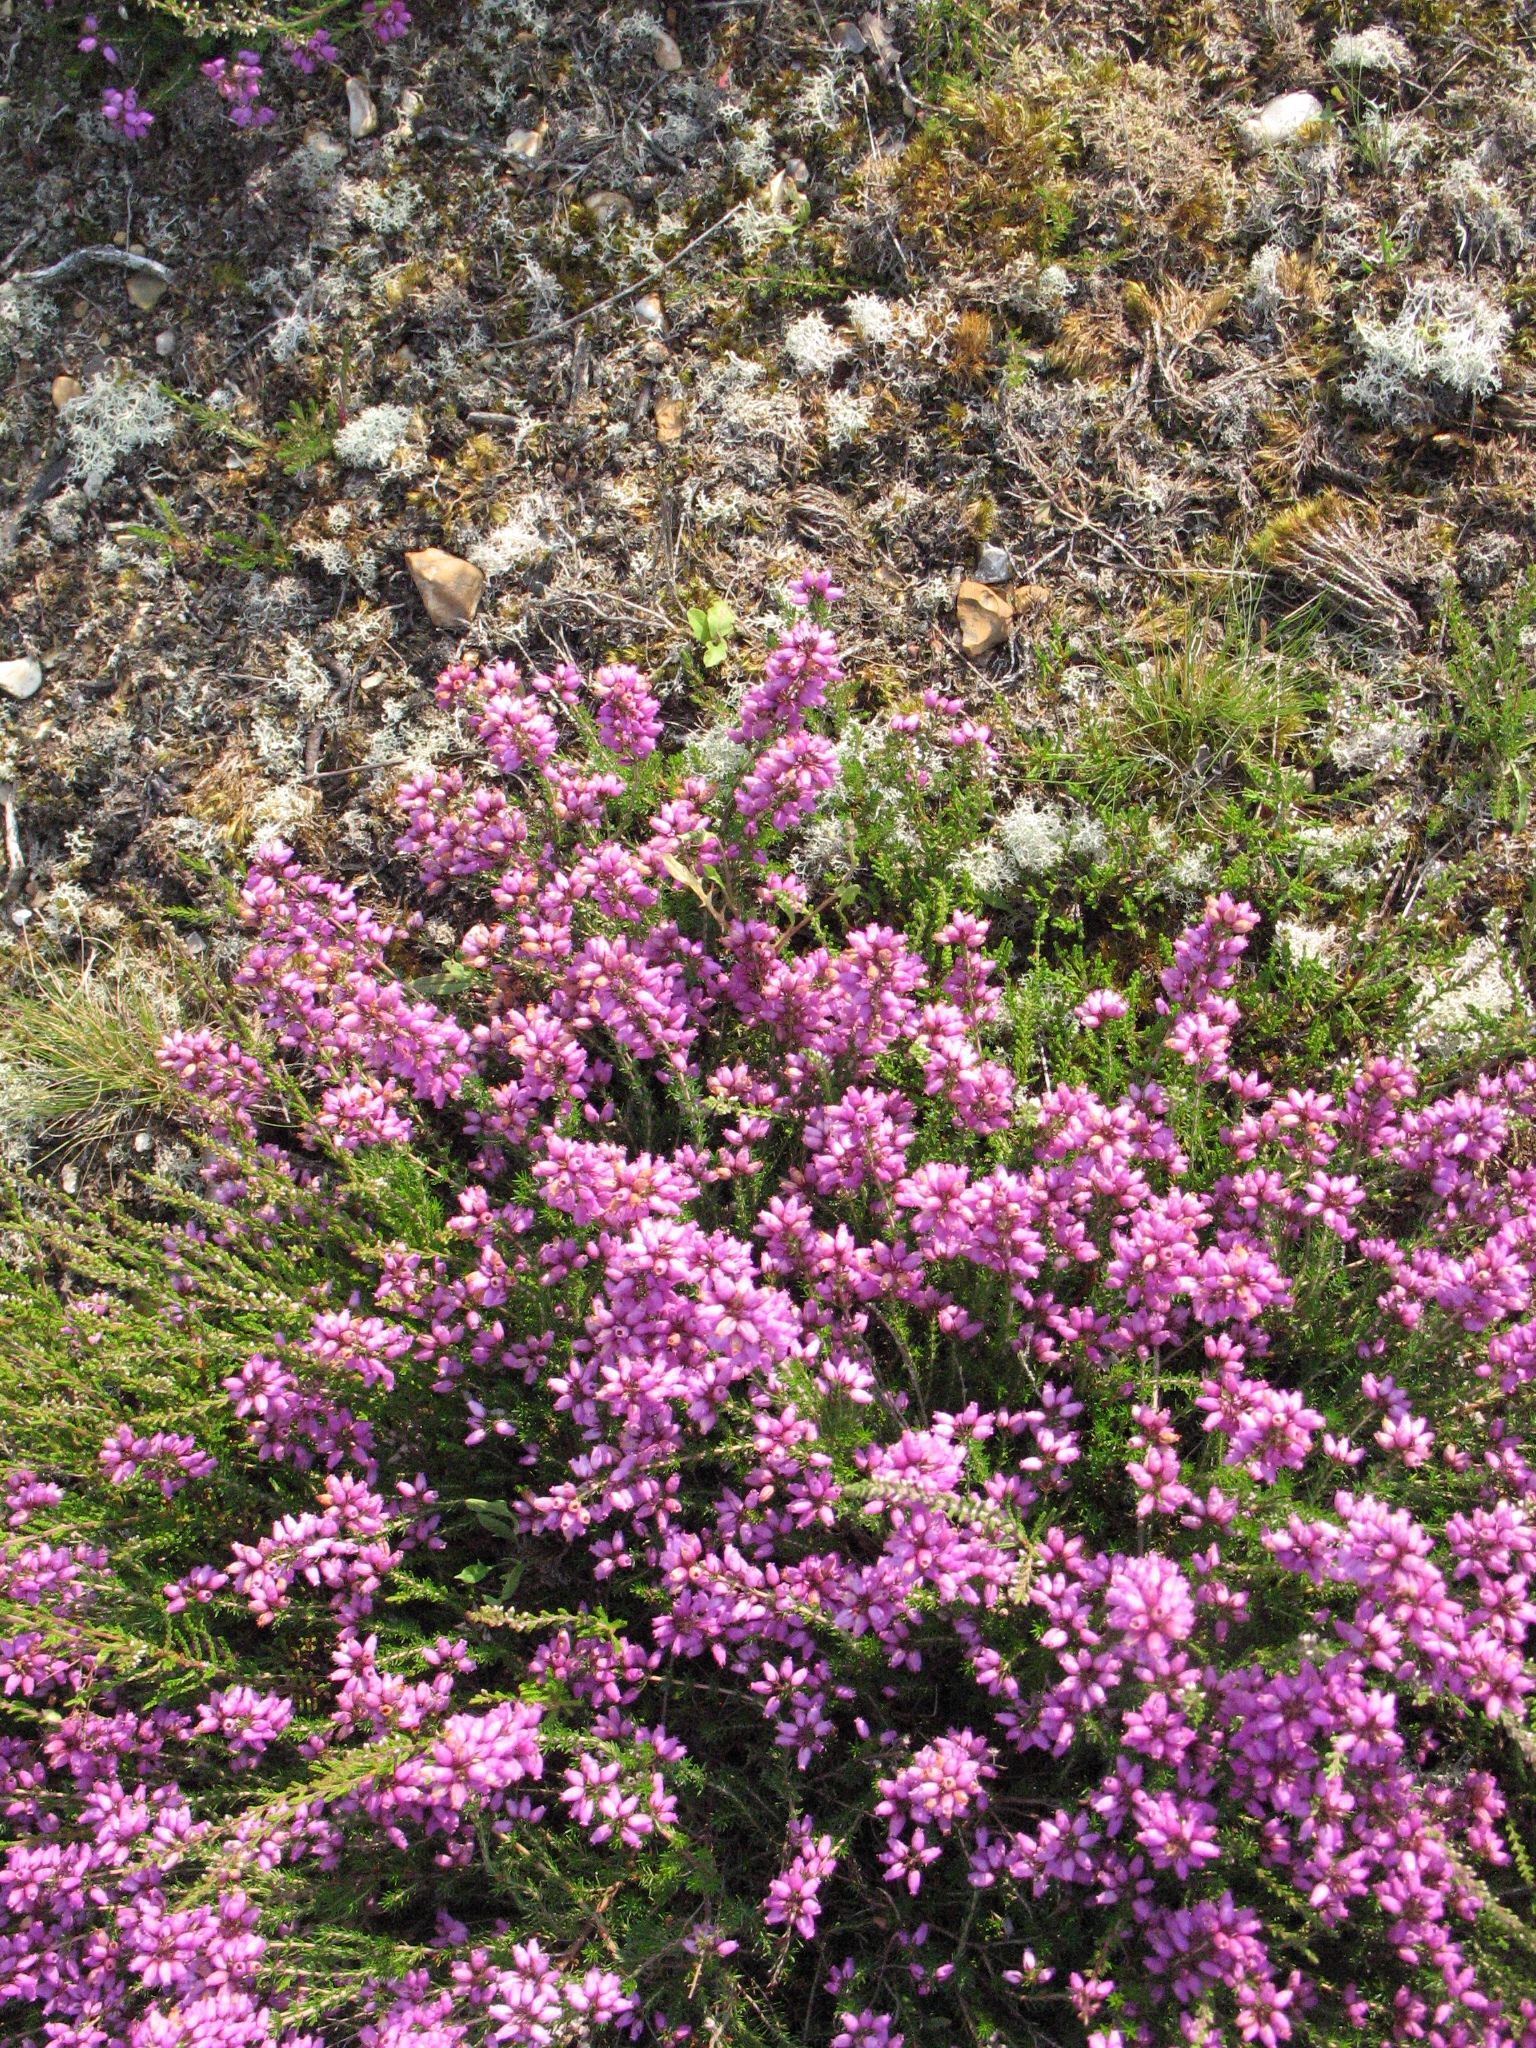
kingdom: Plantae
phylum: Tracheophyta
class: Magnoliopsida
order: Ericales
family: Ericaceae
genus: Erica
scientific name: Erica cinerea
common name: Bell heather
